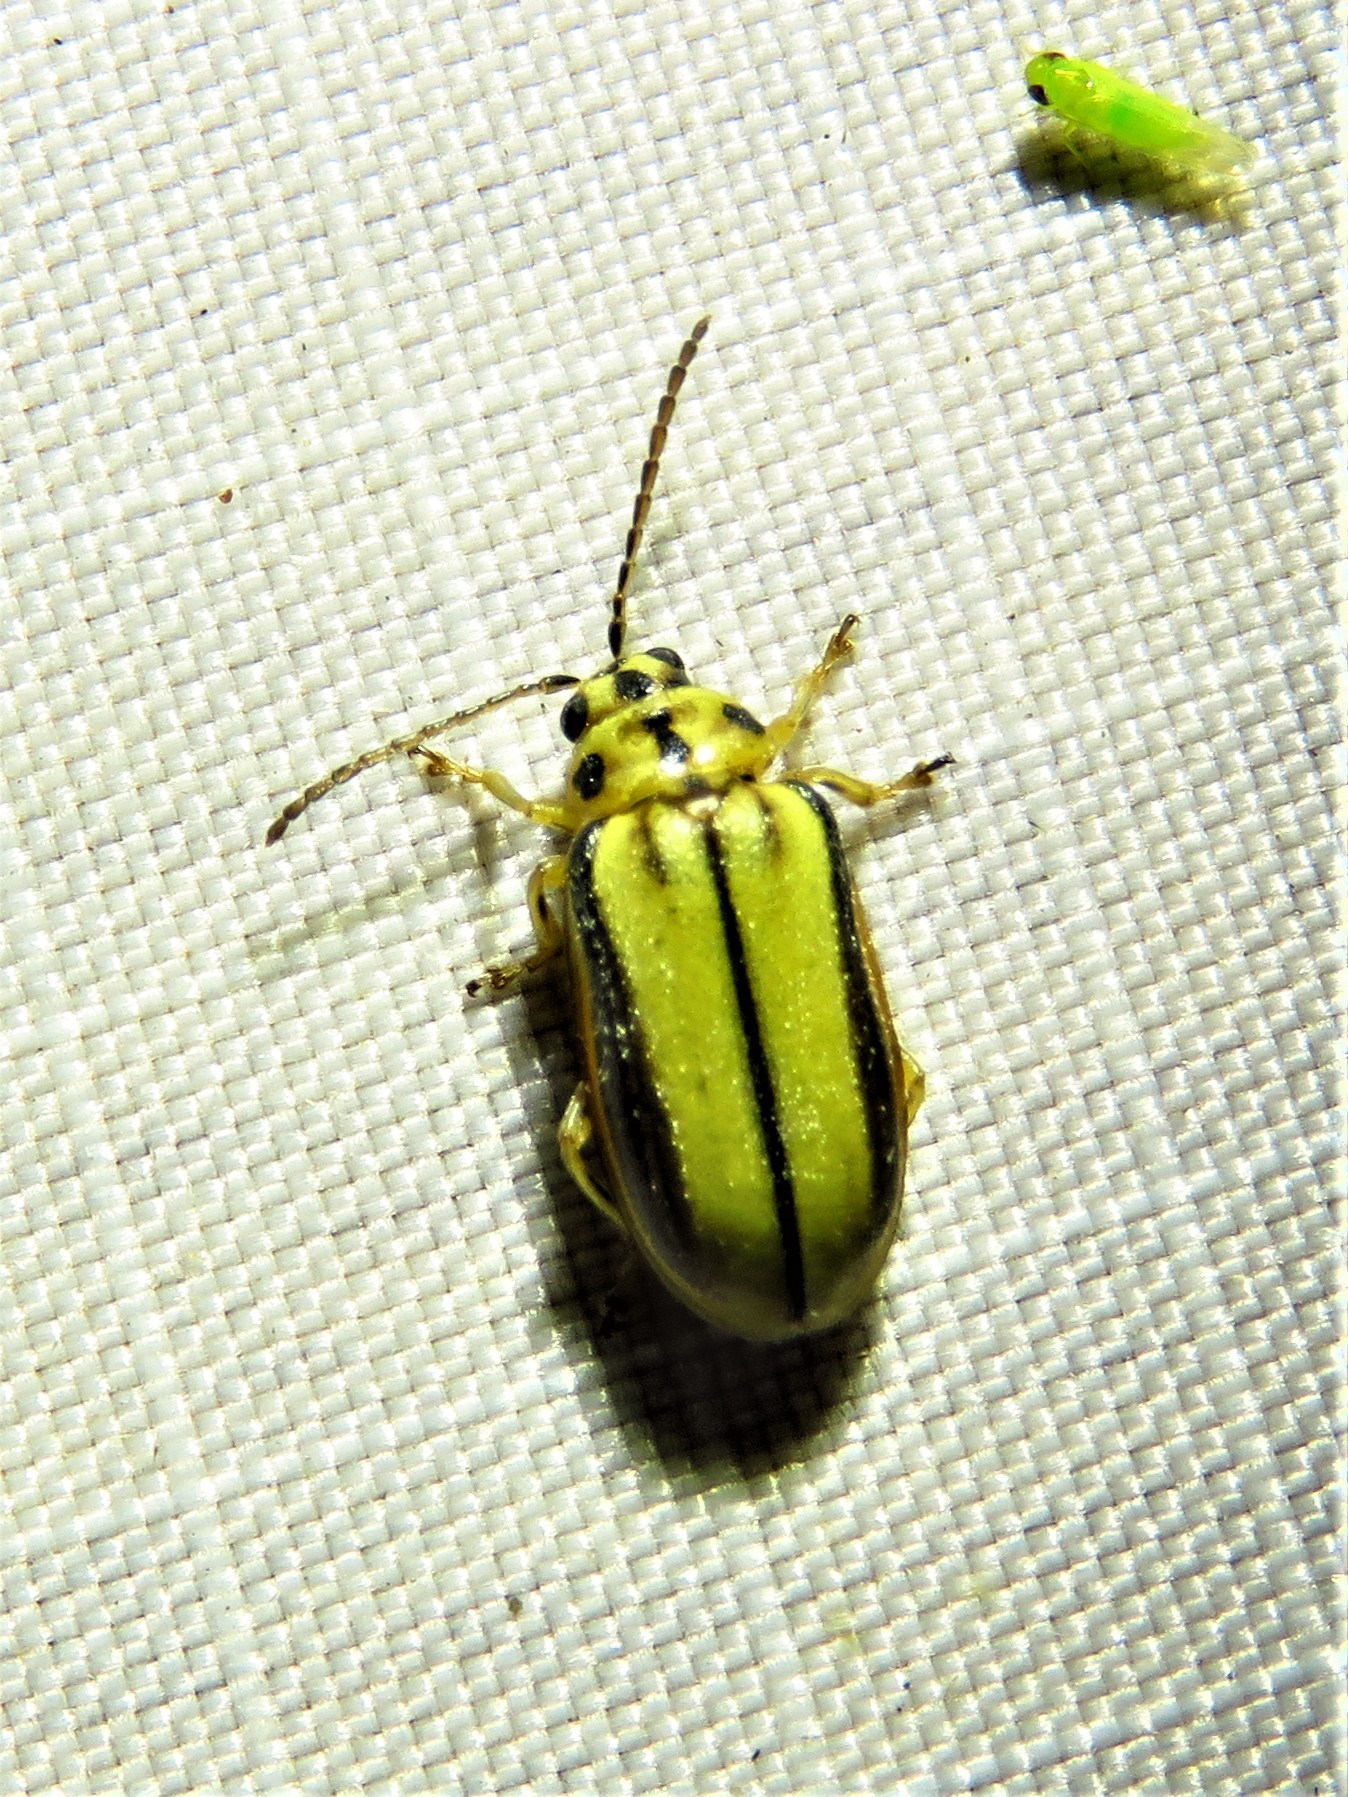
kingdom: Animalia
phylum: Arthropoda
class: Insecta
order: Coleoptera
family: Chrysomelidae
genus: Xanthogaleruca
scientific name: Xanthogaleruca luteola
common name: Elm leaf beetle
